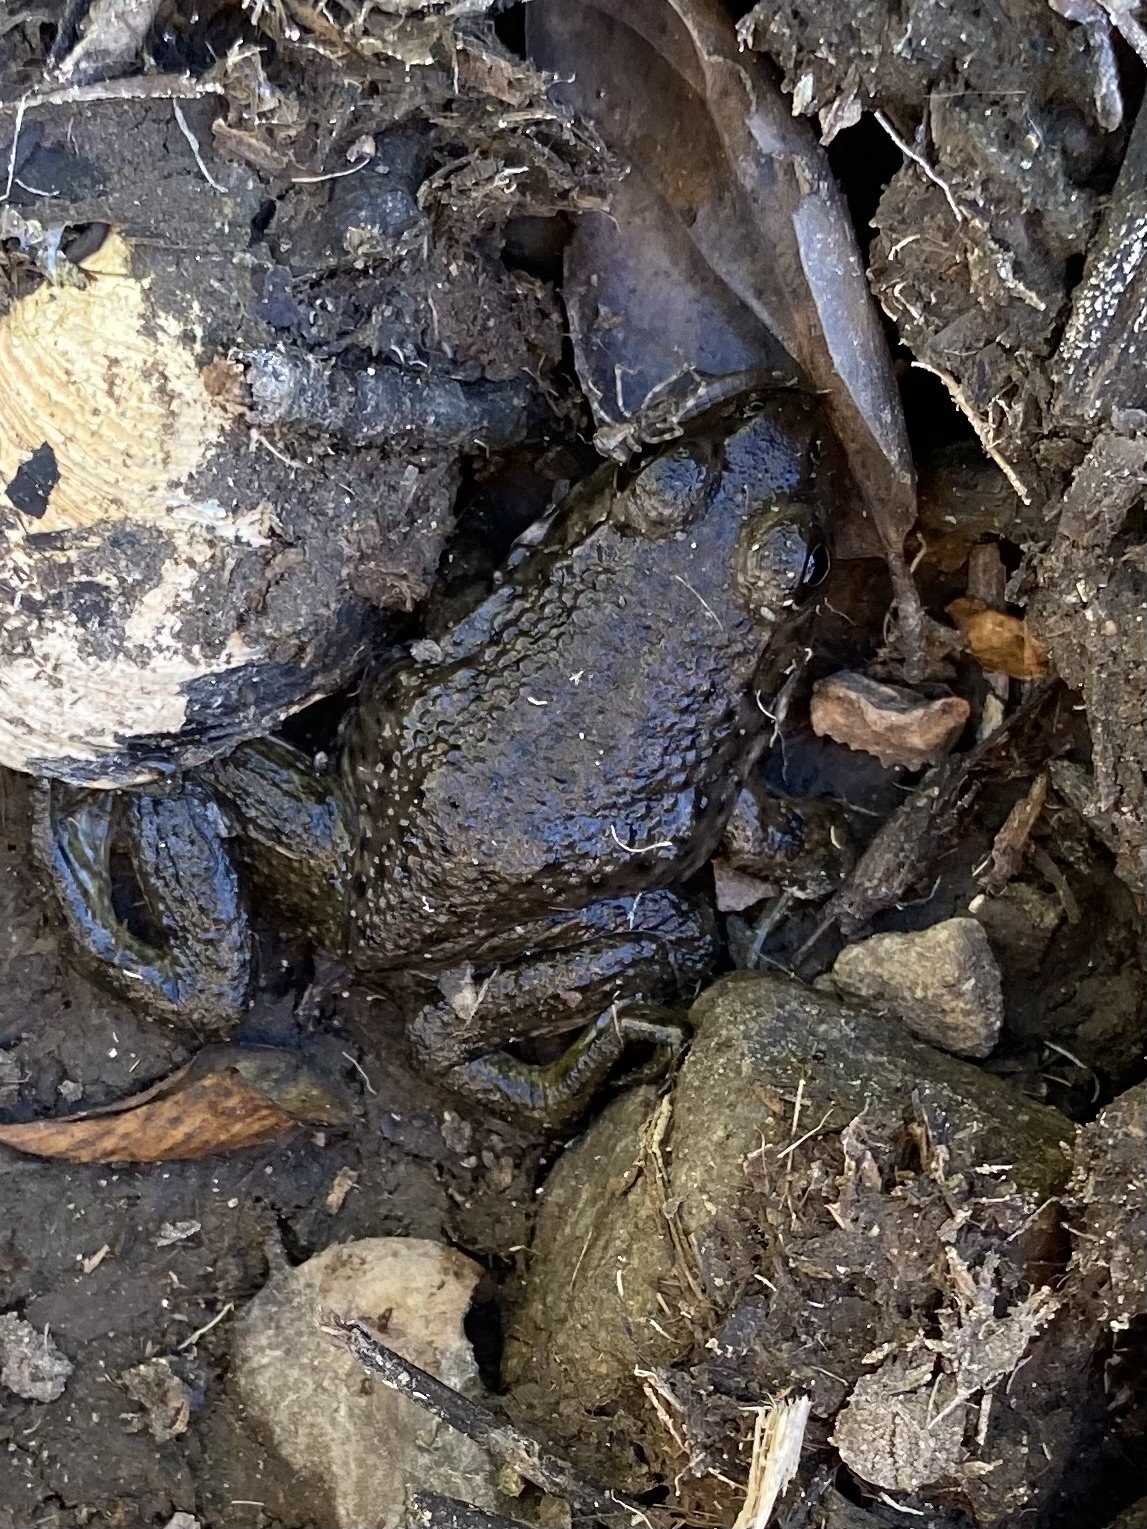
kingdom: Animalia
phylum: Chordata
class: Amphibia
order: Anura
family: Ranidae
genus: Lithobates
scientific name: Lithobates catesbeianus
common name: American bullfrog
